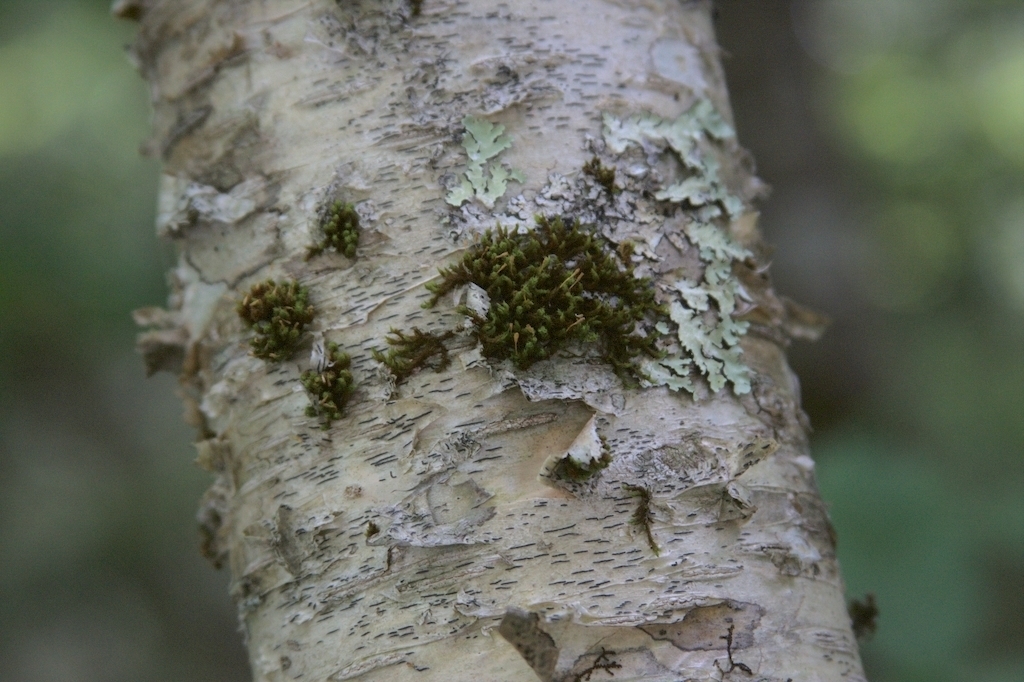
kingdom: Fungi
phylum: Ascomycota
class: Lecanoromycetes
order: Ostropales
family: Graphidaceae
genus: Graphis
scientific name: Graphis scripta
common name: Script lichen
